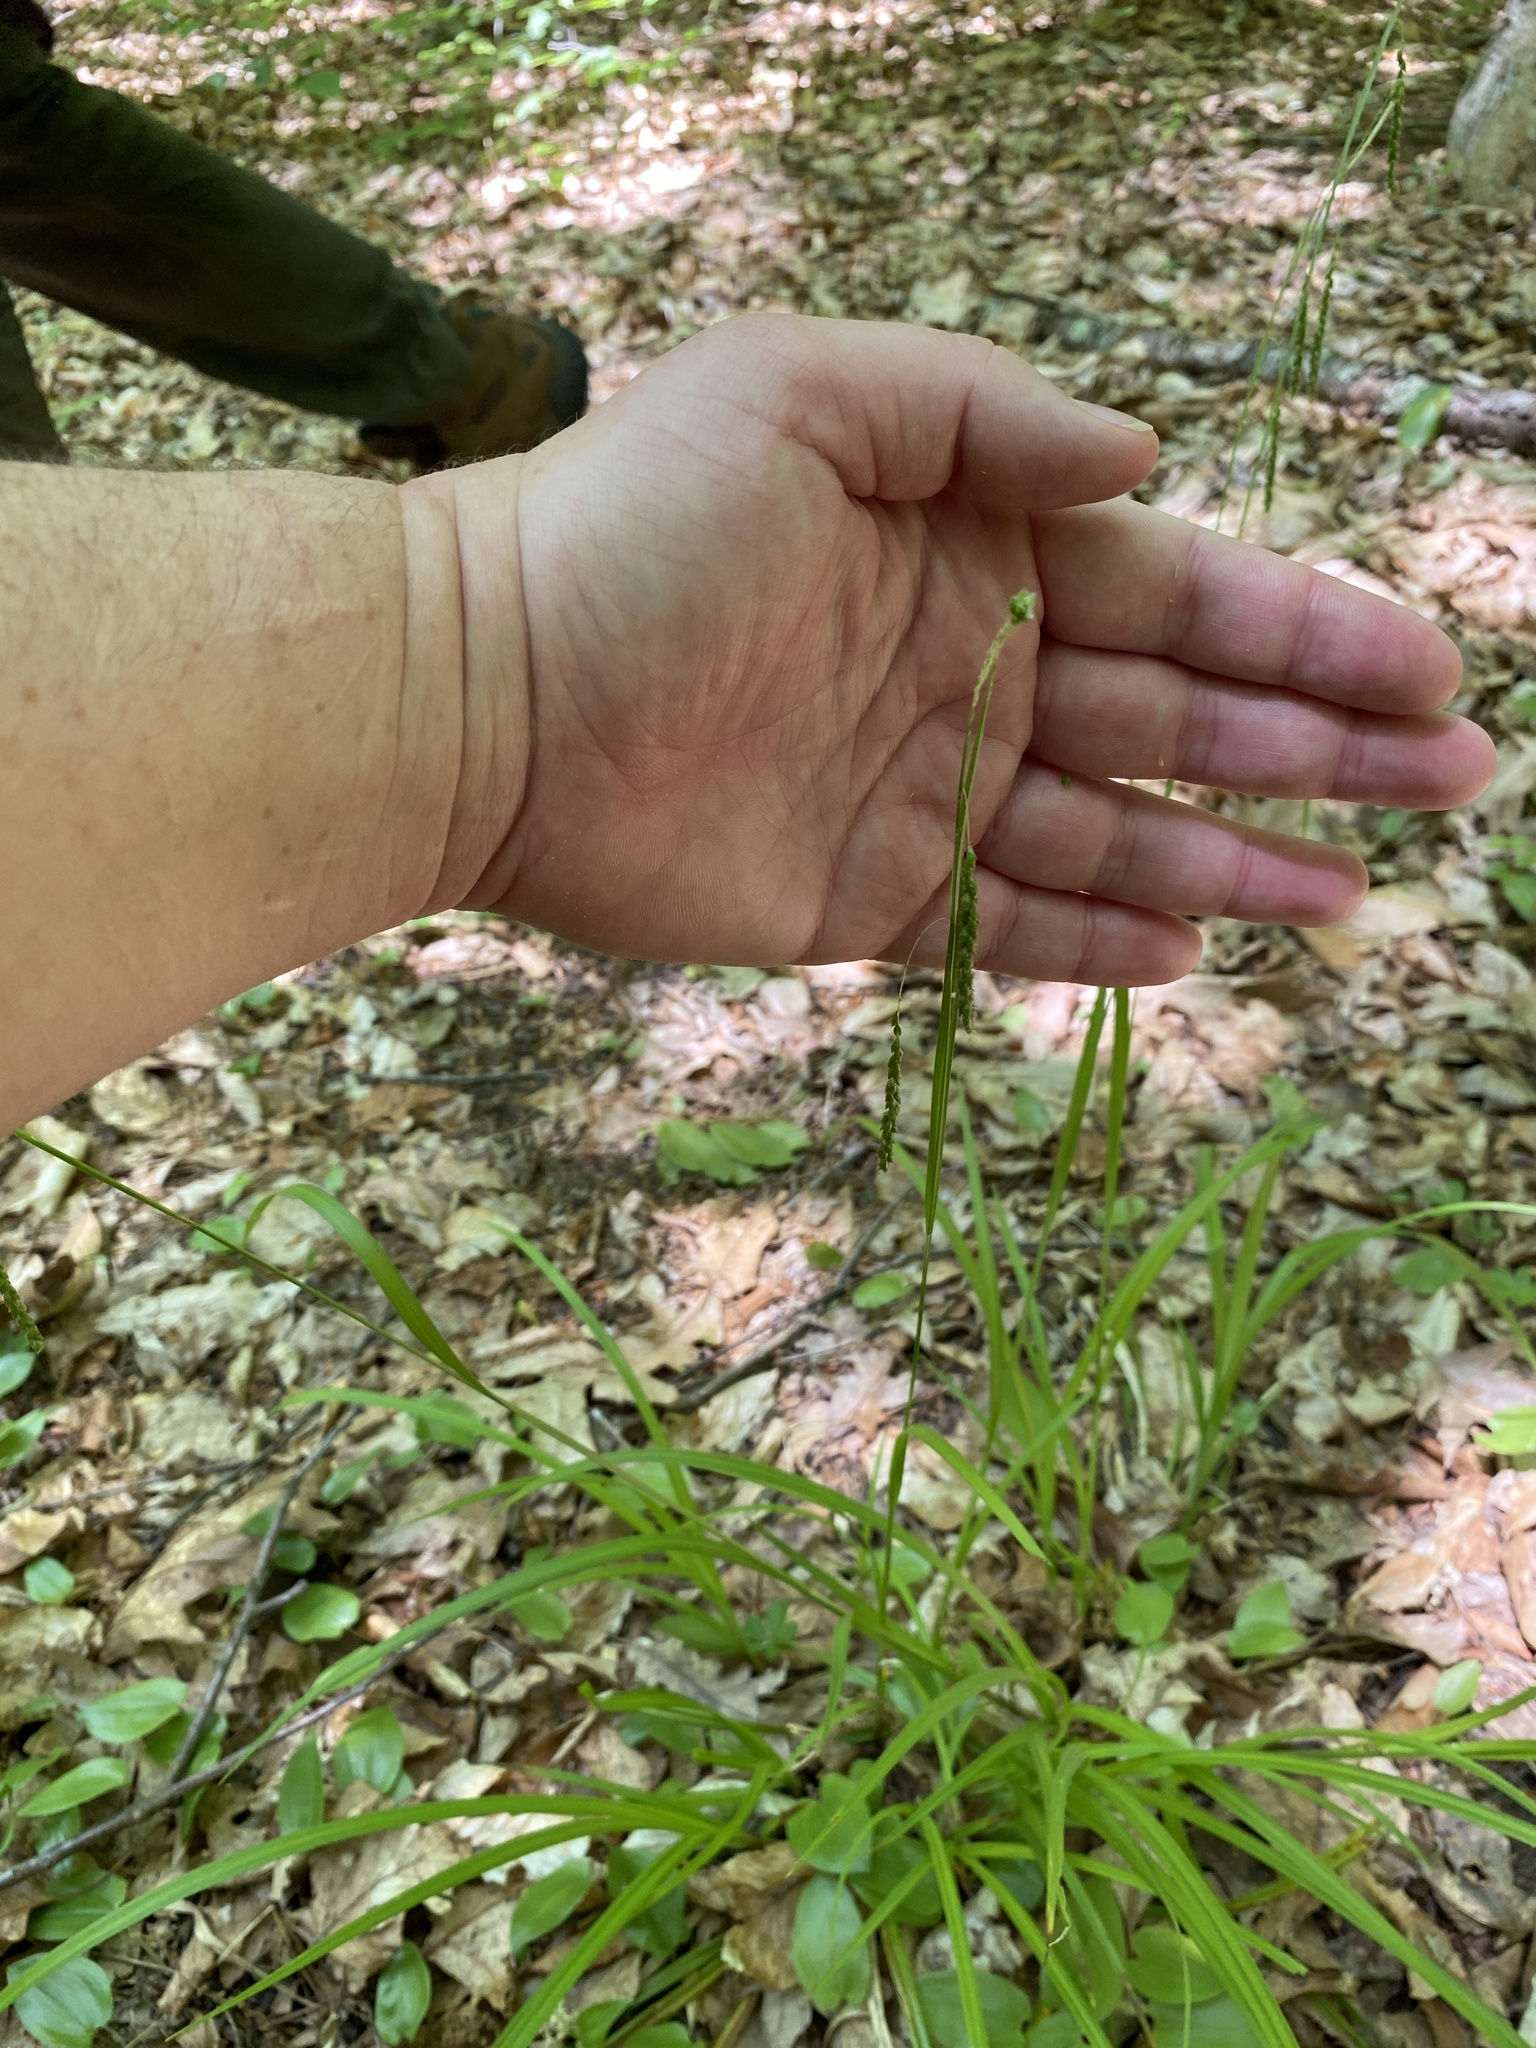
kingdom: Plantae
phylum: Tracheophyta
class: Liliopsida
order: Poales
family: Cyperaceae
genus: Carex
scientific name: Carex gracillima
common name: Graceful sedge
